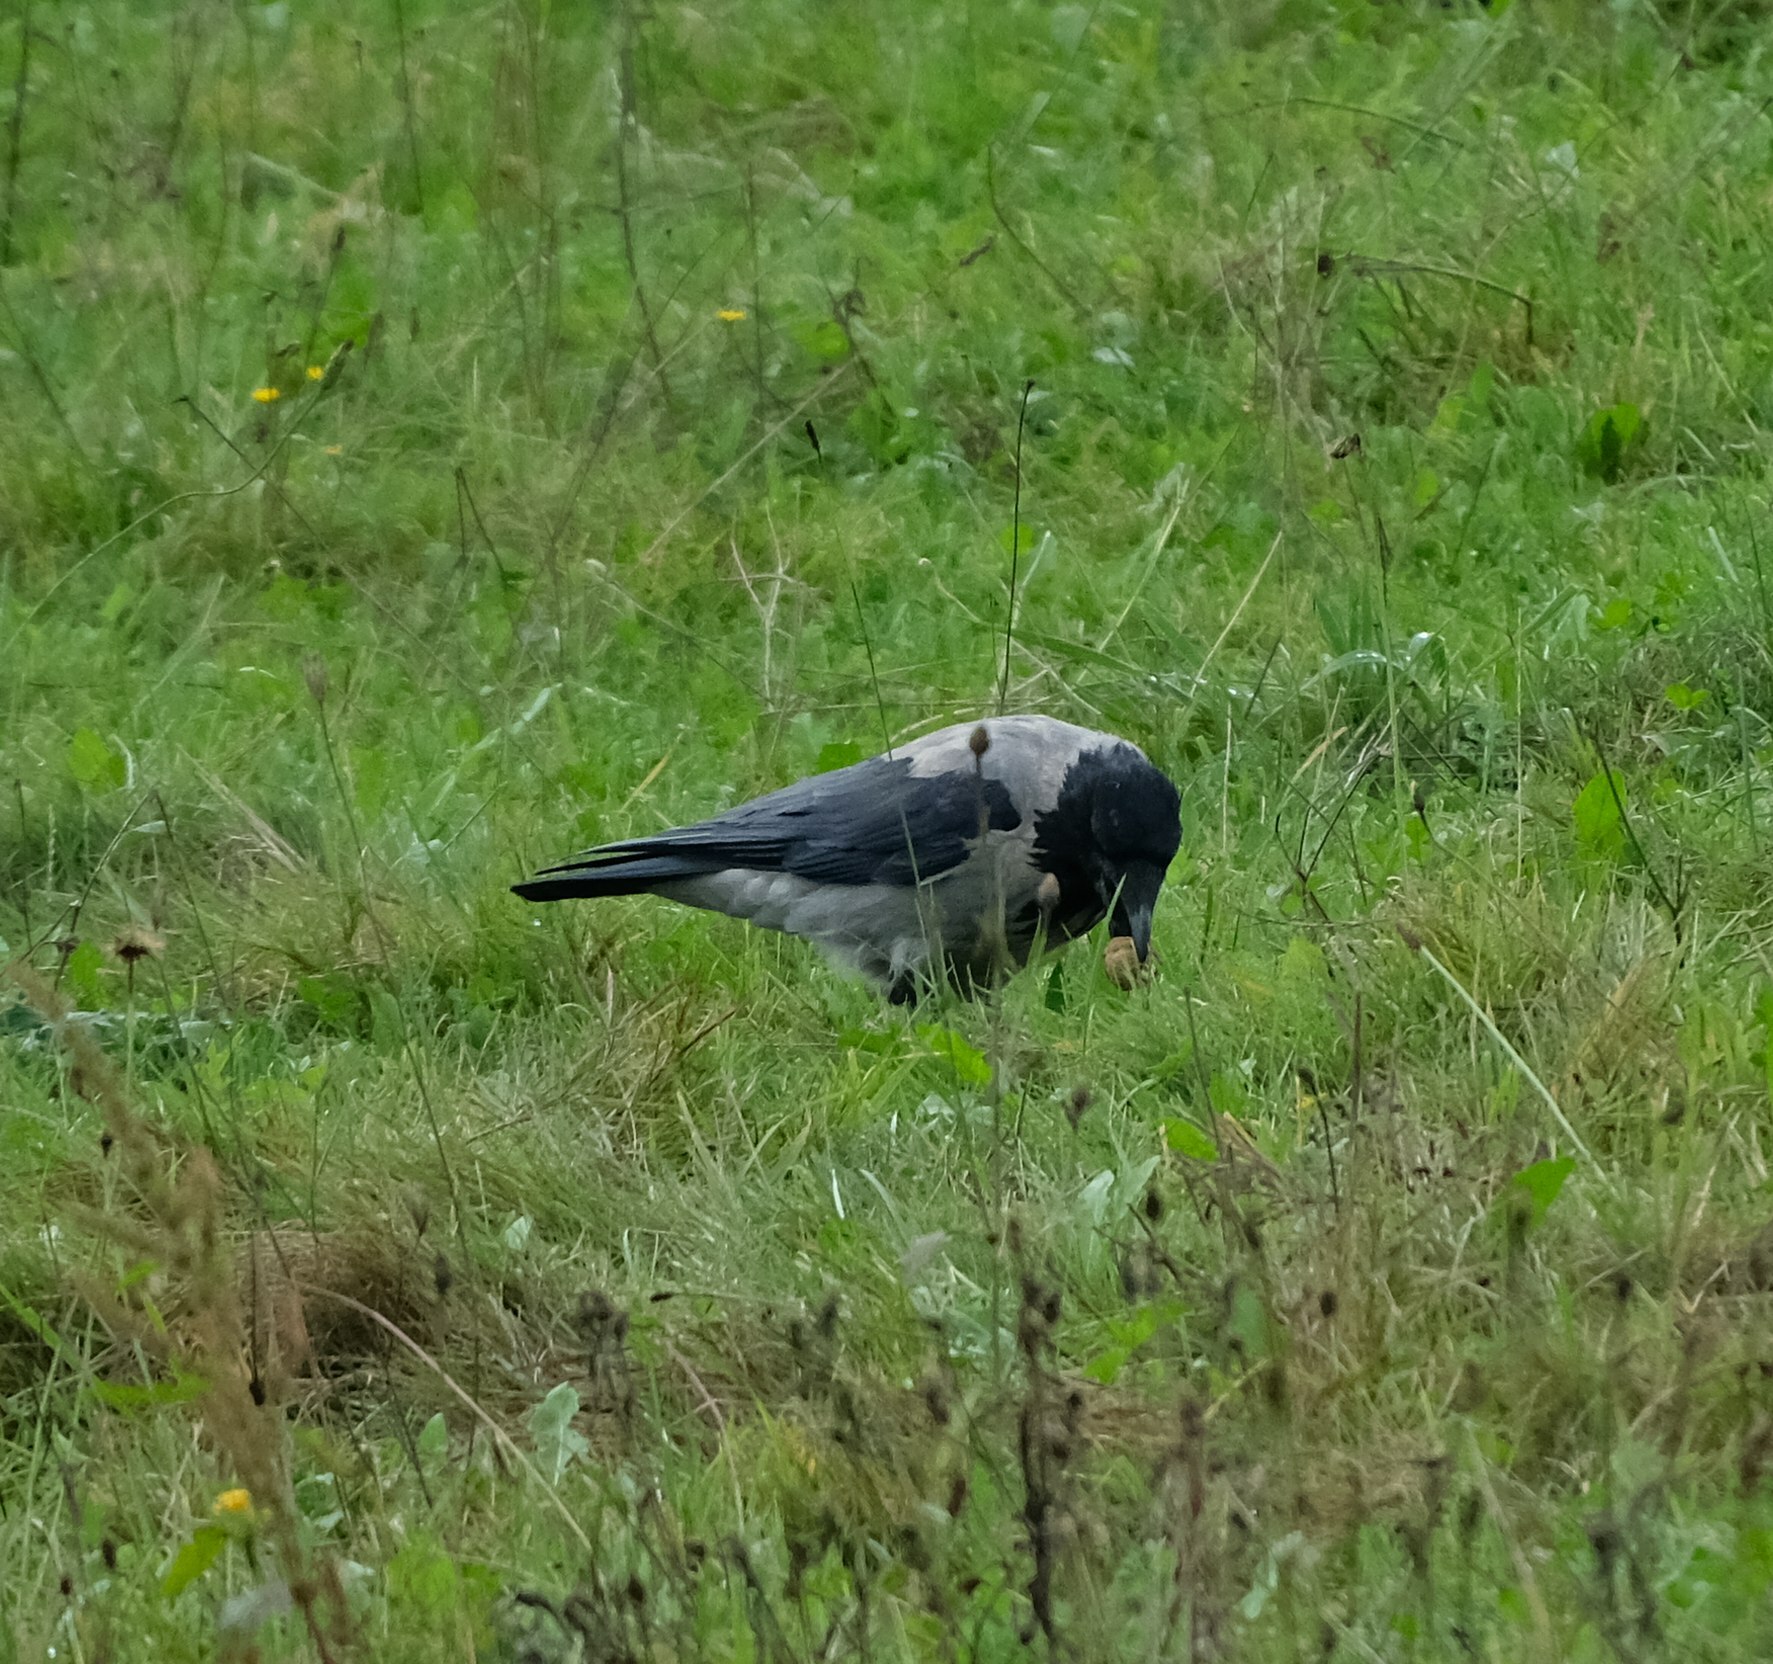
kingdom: Animalia
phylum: Chordata
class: Aves
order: Passeriformes
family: Corvidae
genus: Corvus
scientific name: Corvus cornix
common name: Hooded crow
